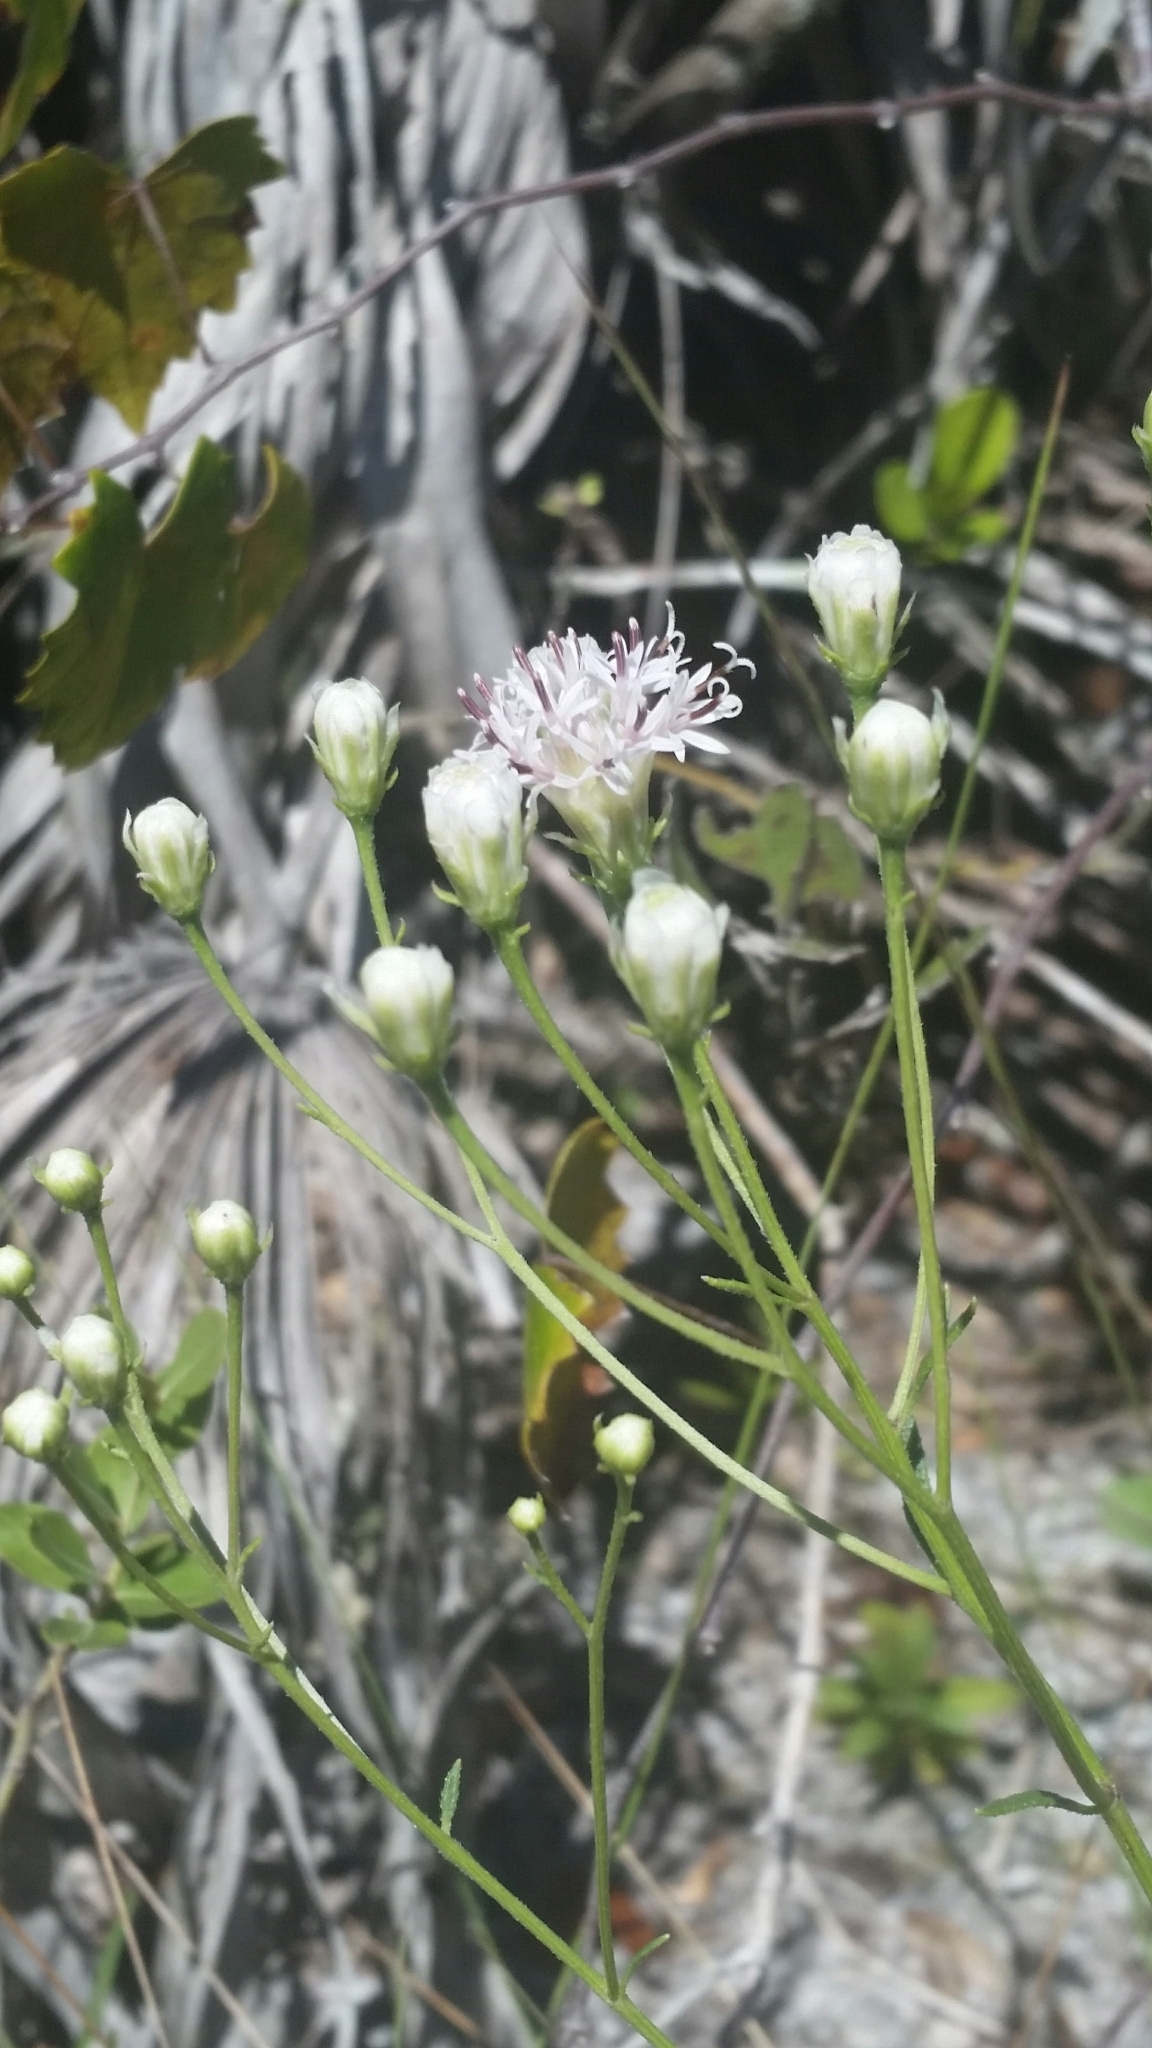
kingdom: Plantae
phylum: Tracheophyta
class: Magnoliopsida
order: Asterales
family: Asteraceae
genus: Palafoxia
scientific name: Palafoxia integrifolia
